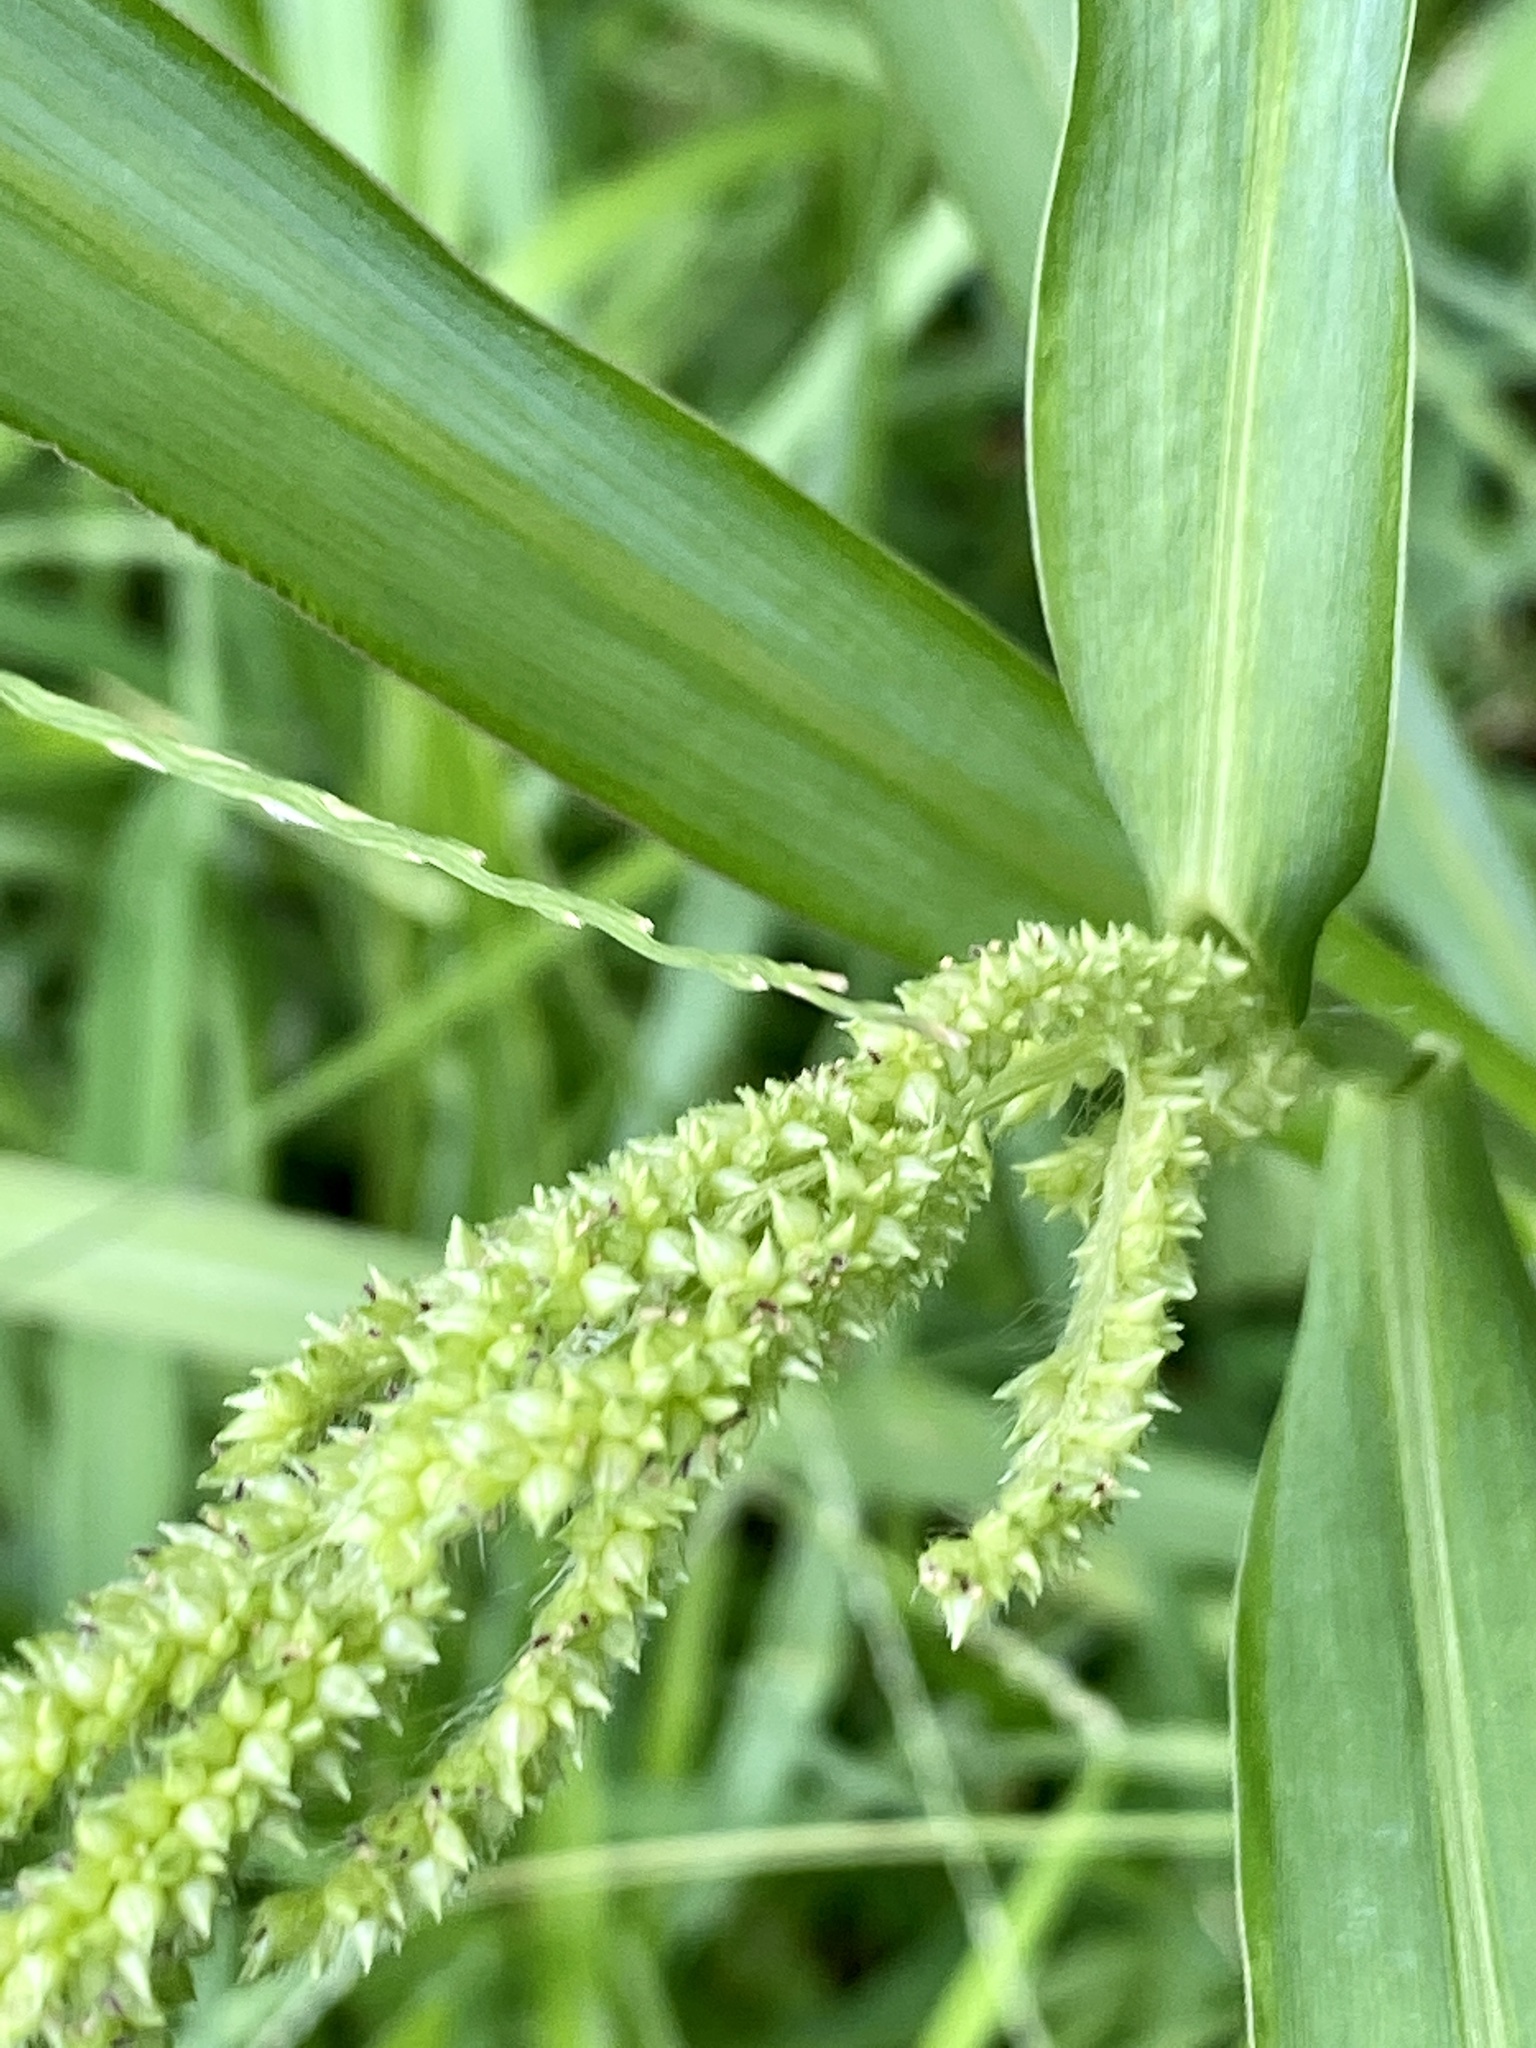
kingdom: Plantae
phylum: Tracheophyta
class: Liliopsida
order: Poales
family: Poaceae
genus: Echinochloa
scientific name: Echinochloa crus-galli
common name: Cockspur
